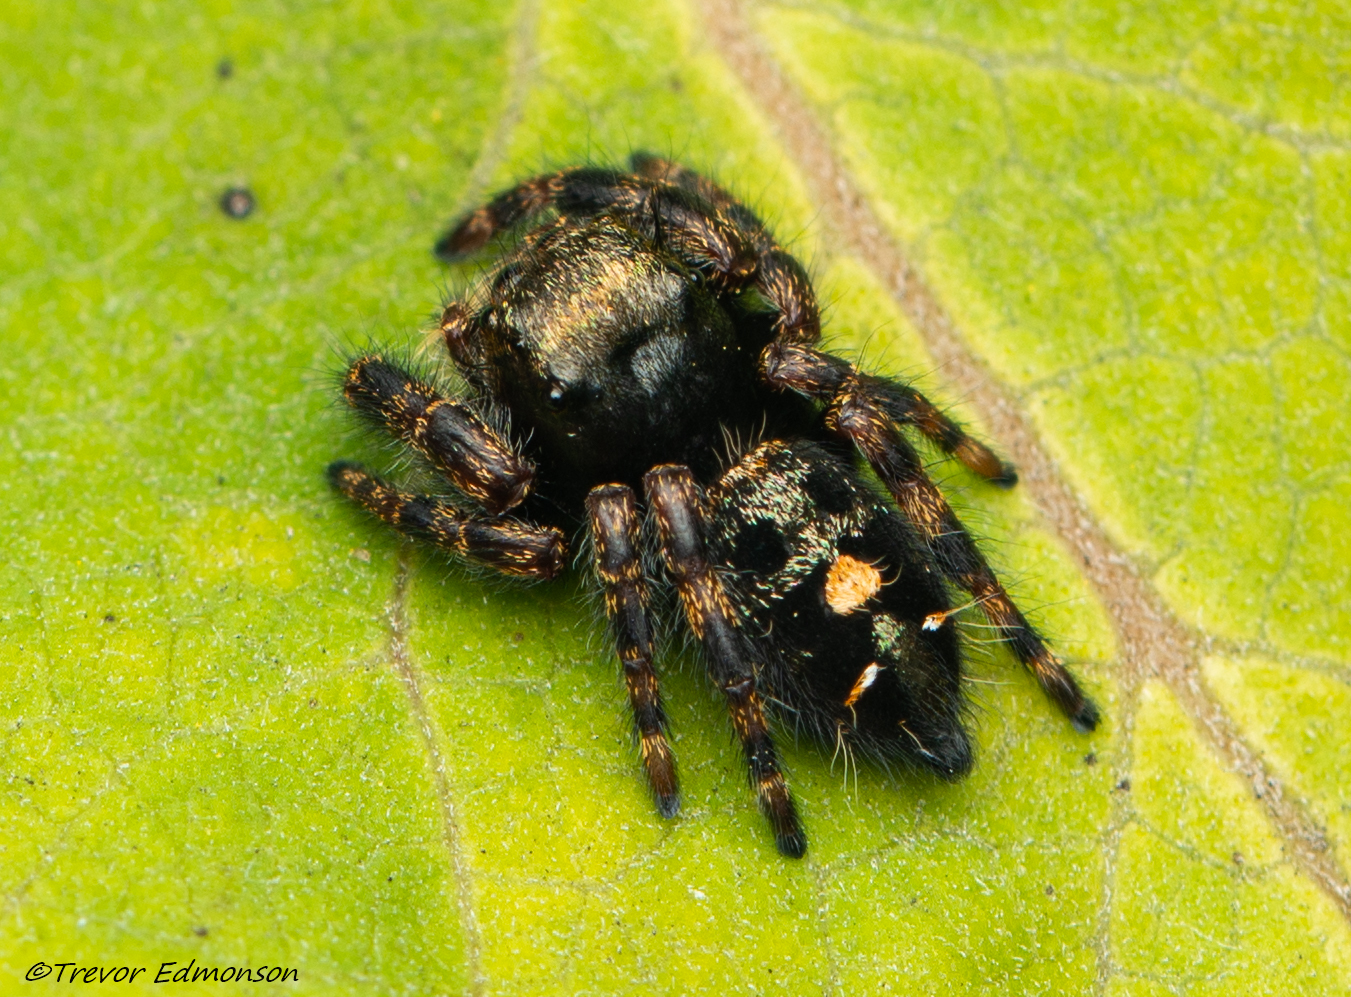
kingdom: Animalia
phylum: Arthropoda
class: Arachnida
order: Araneae
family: Salticidae
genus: Phidippus
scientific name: Phidippus audax
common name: Bold jumper
